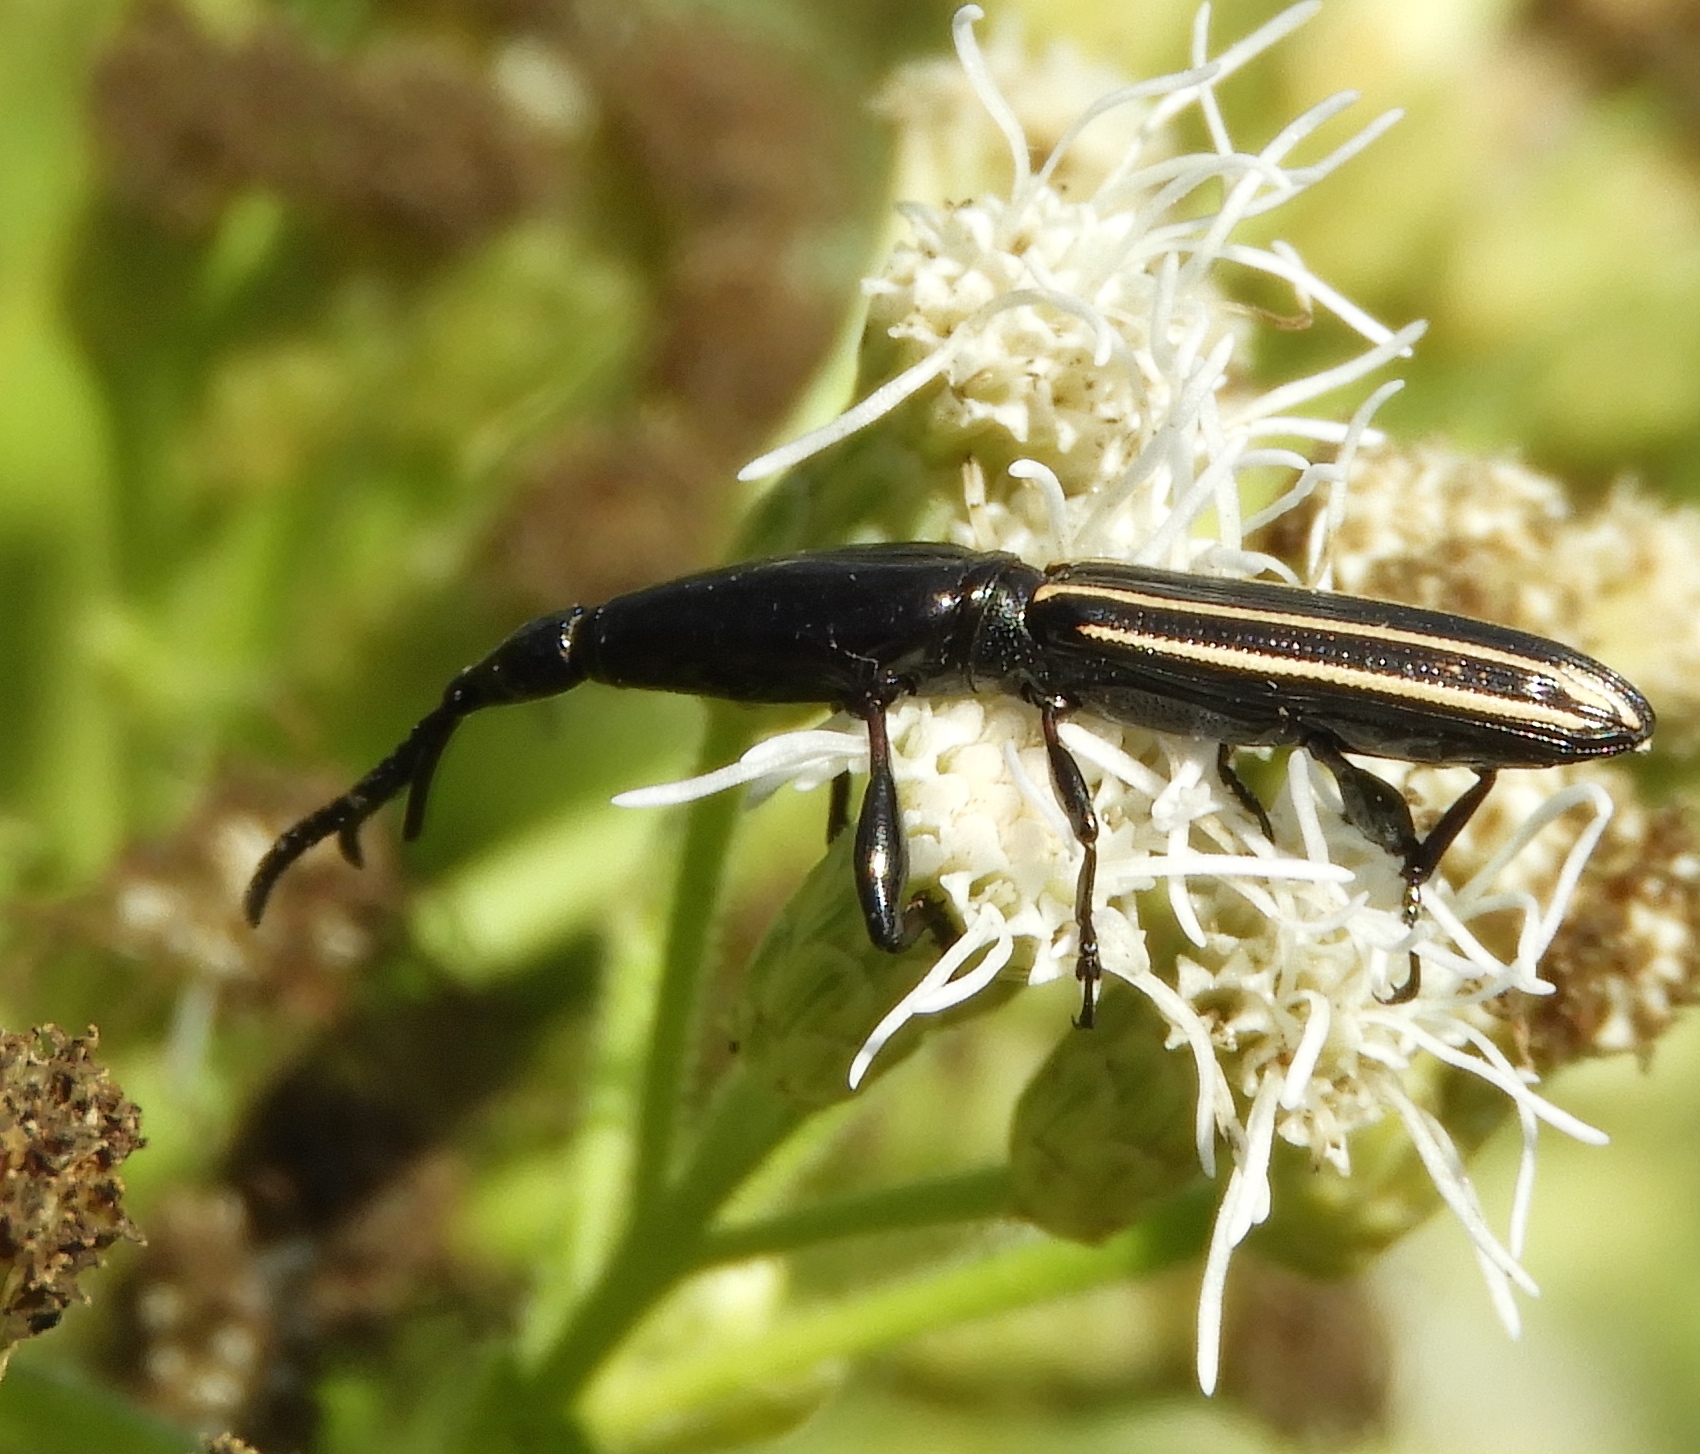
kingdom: Animalia
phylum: Arthropoda
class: Insecta
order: Coleoptera
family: Brentidae
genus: Brentus
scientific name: Brentus anchorago
